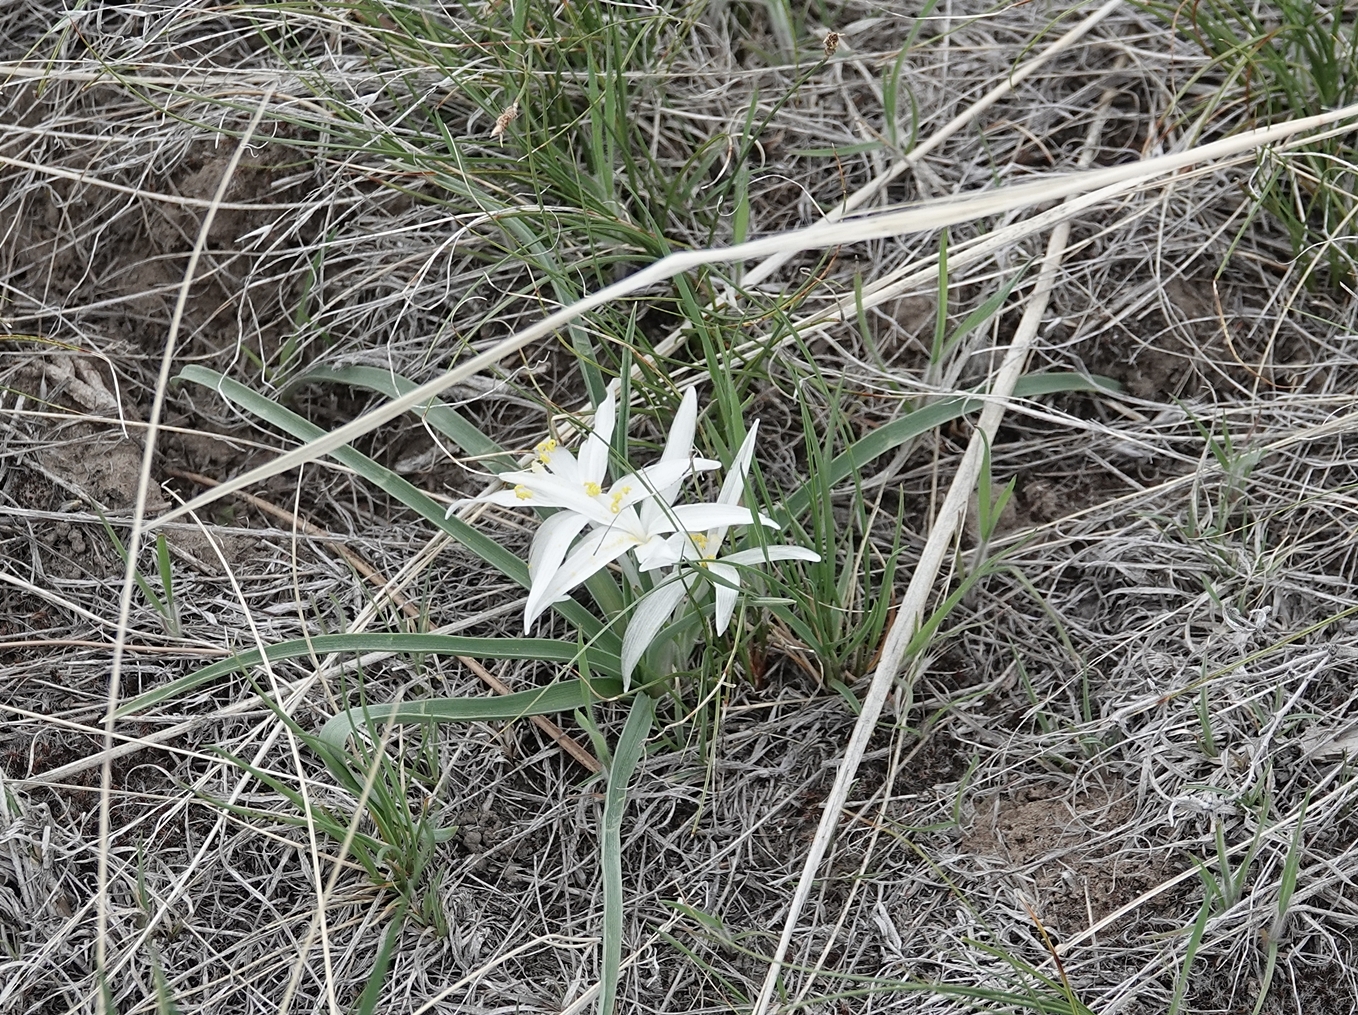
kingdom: Plantae
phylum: Tracheophyta
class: Liliopsida
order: Asparagales
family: Asparagaceae
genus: Leucocrinum
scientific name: Leucocrinum montanum
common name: Mountain-lily
